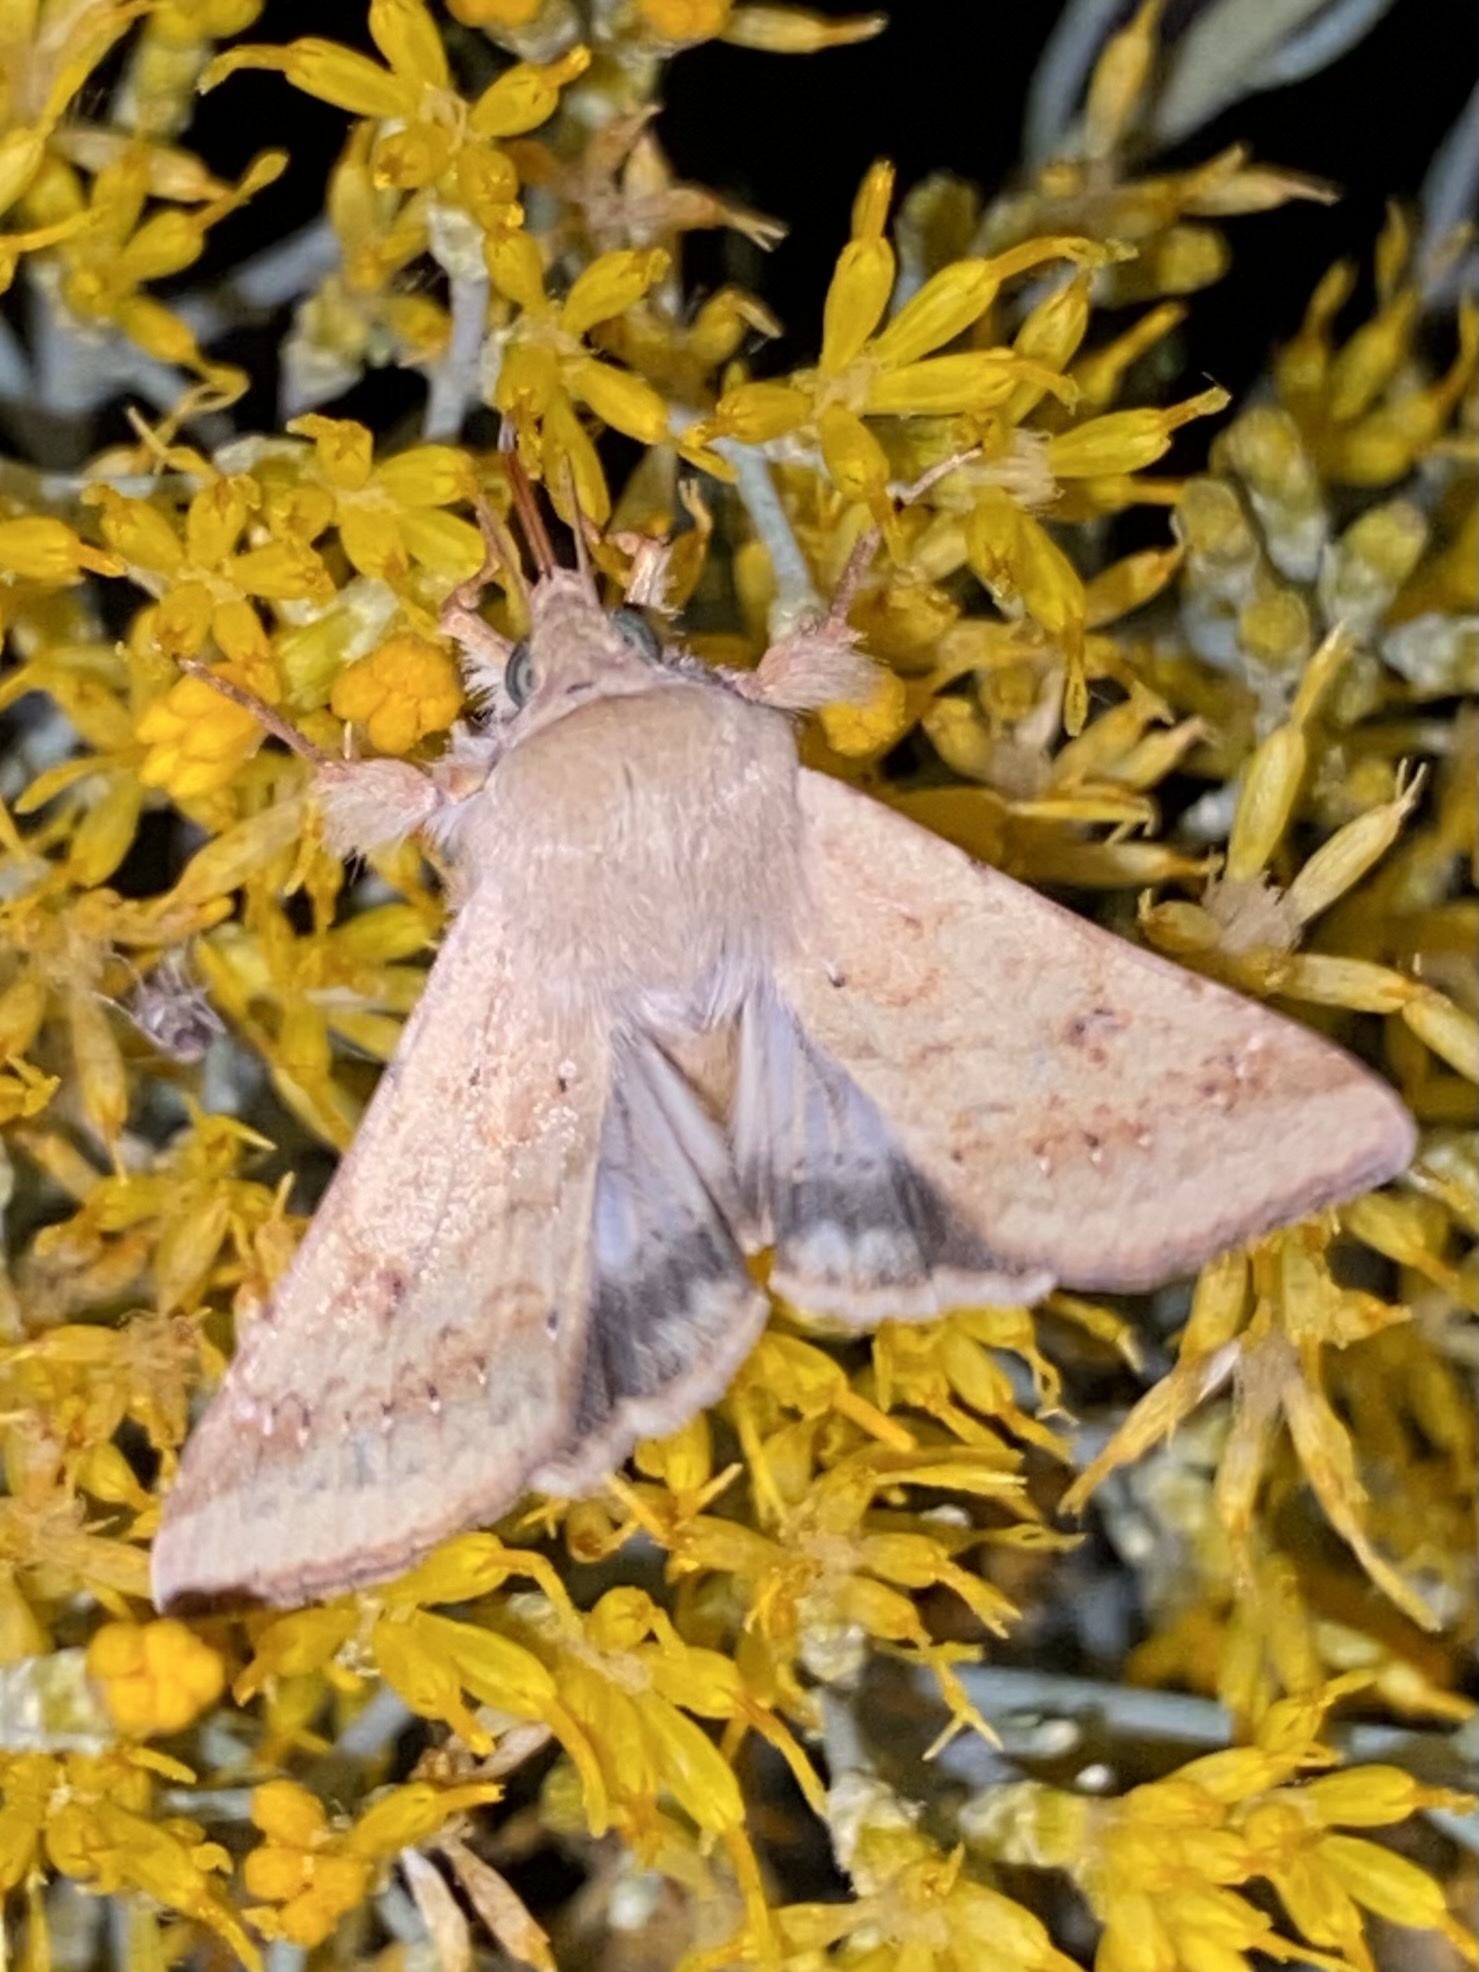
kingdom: Animalia
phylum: Arthropoda
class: Insecta
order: Lepidoptera
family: Noctuidae
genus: Helicoverpa
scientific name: Helicoverpa zea
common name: Bollworm
